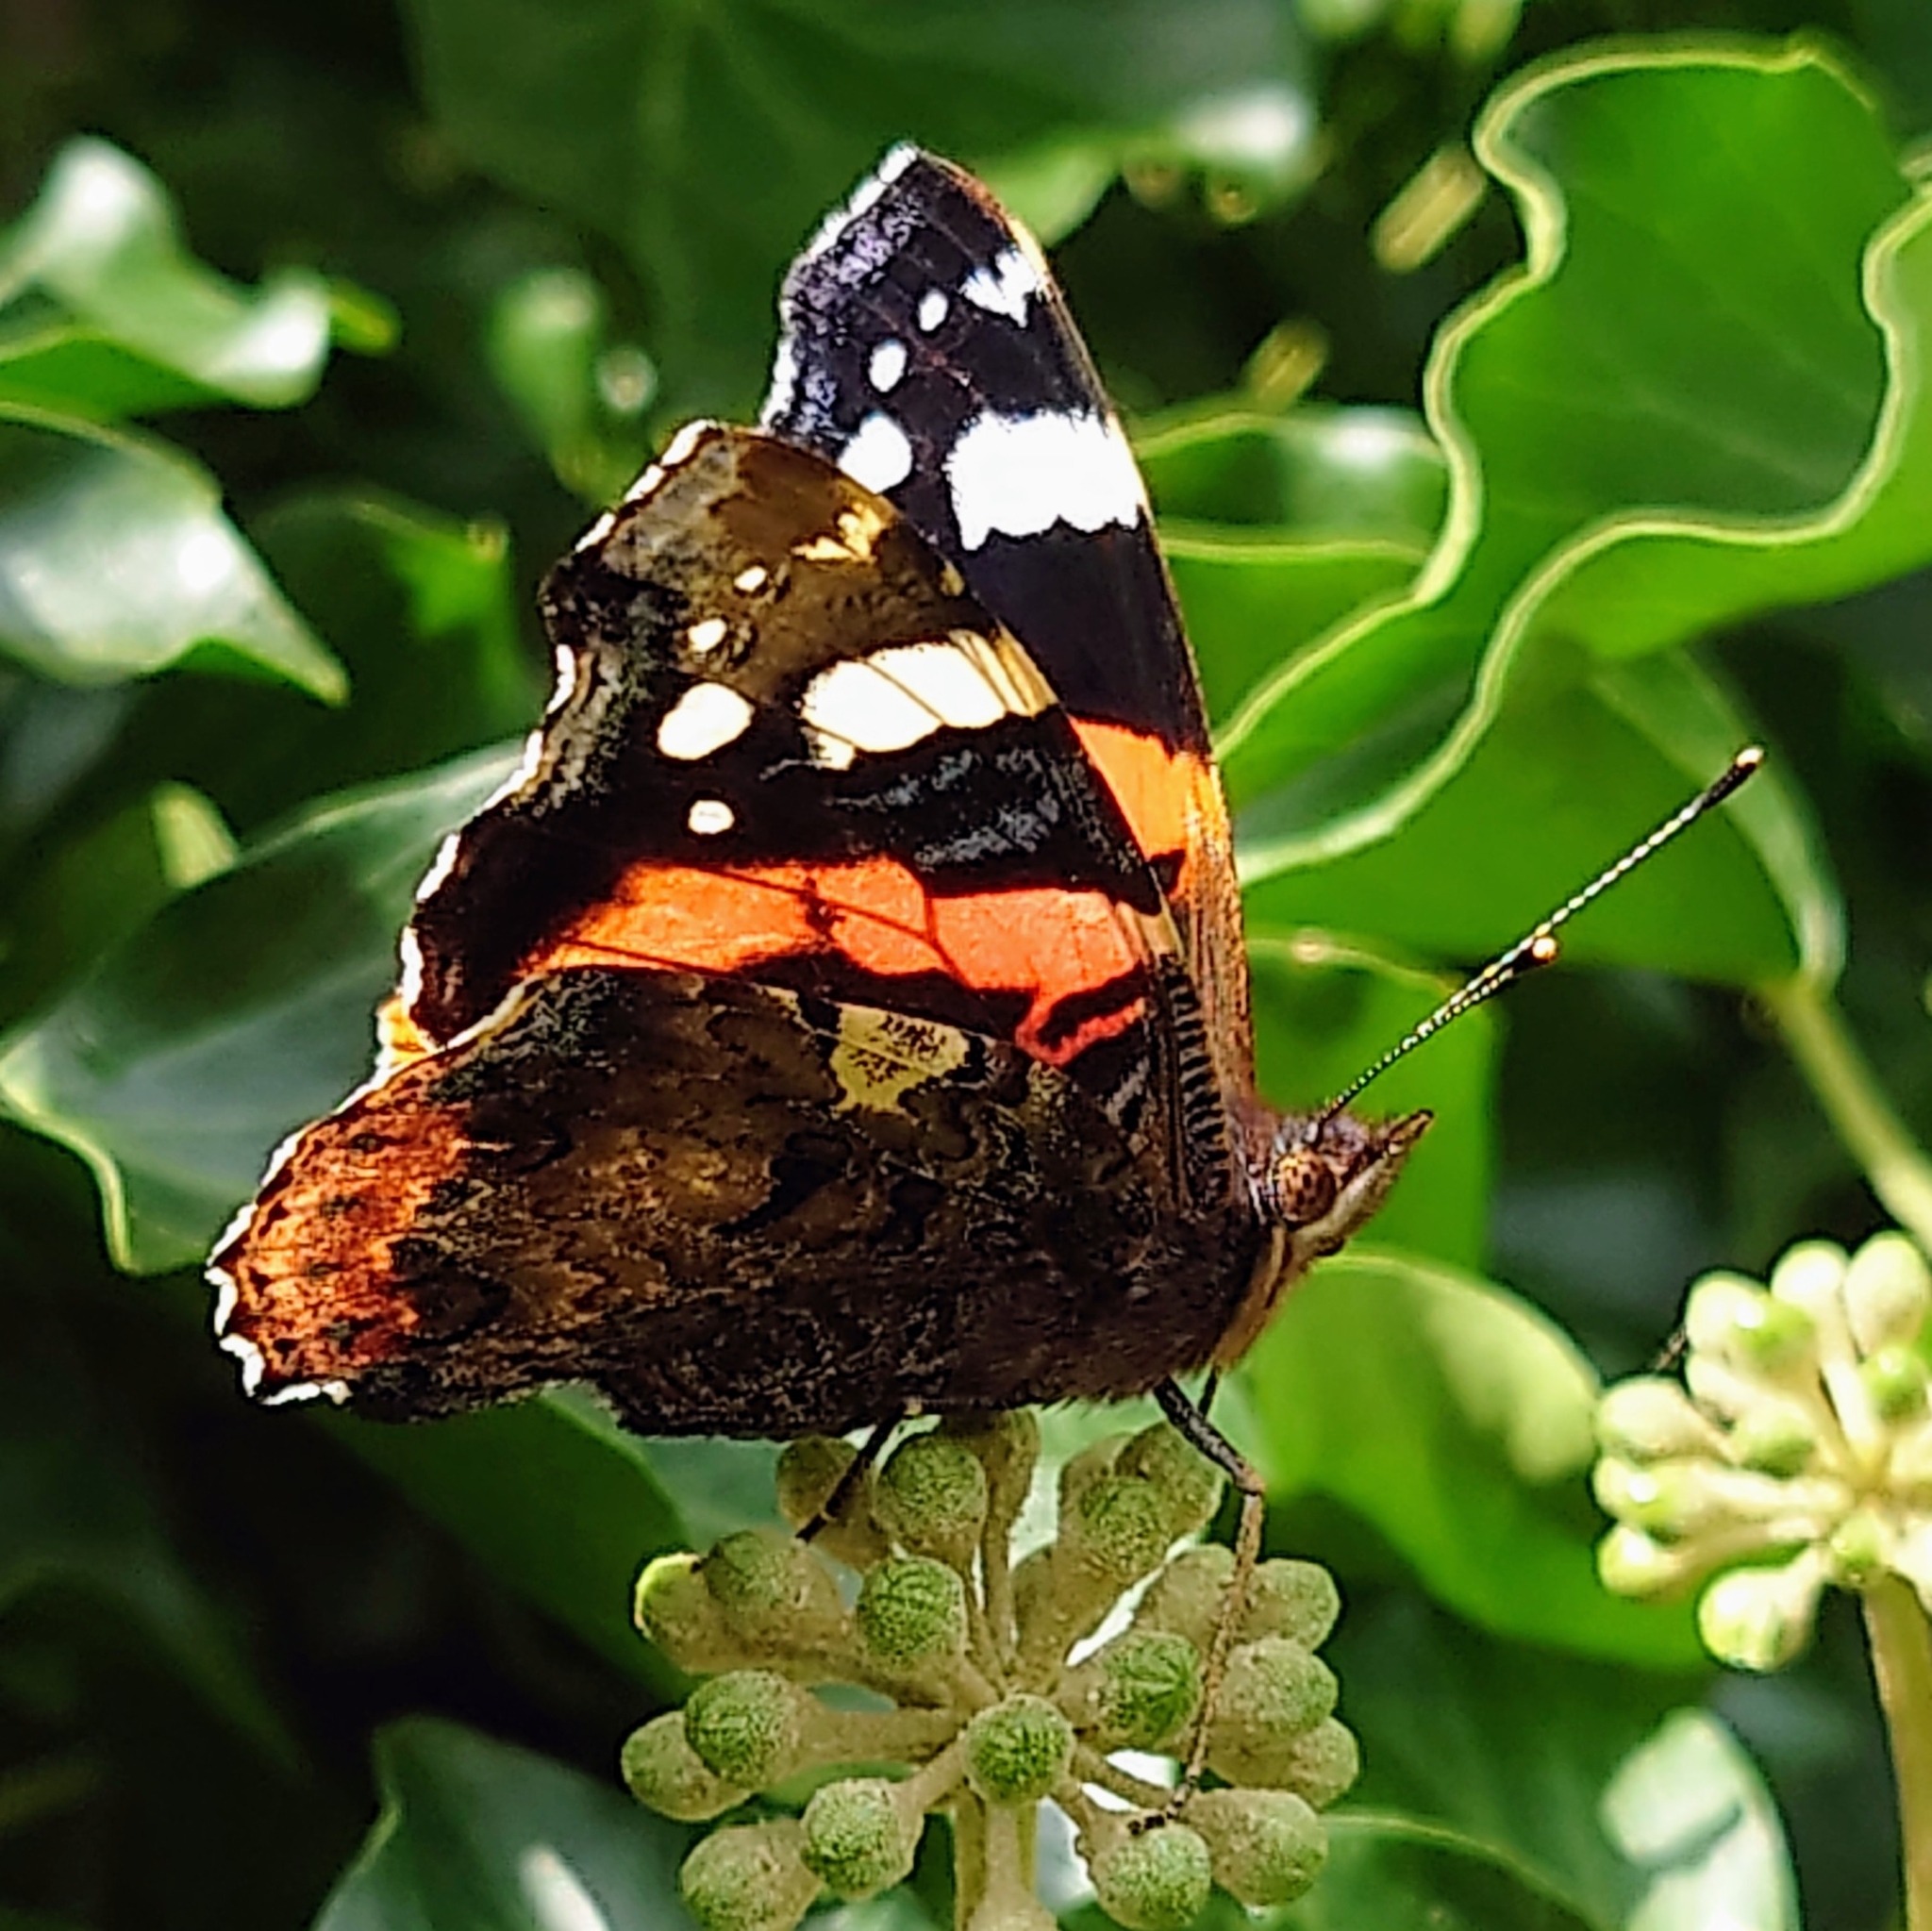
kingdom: Animalia
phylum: Arthropoda
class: Insecta
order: Lepidoptera
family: Nymphalidae
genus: Vanessa
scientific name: Vanessa atalanta
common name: Red admiral
